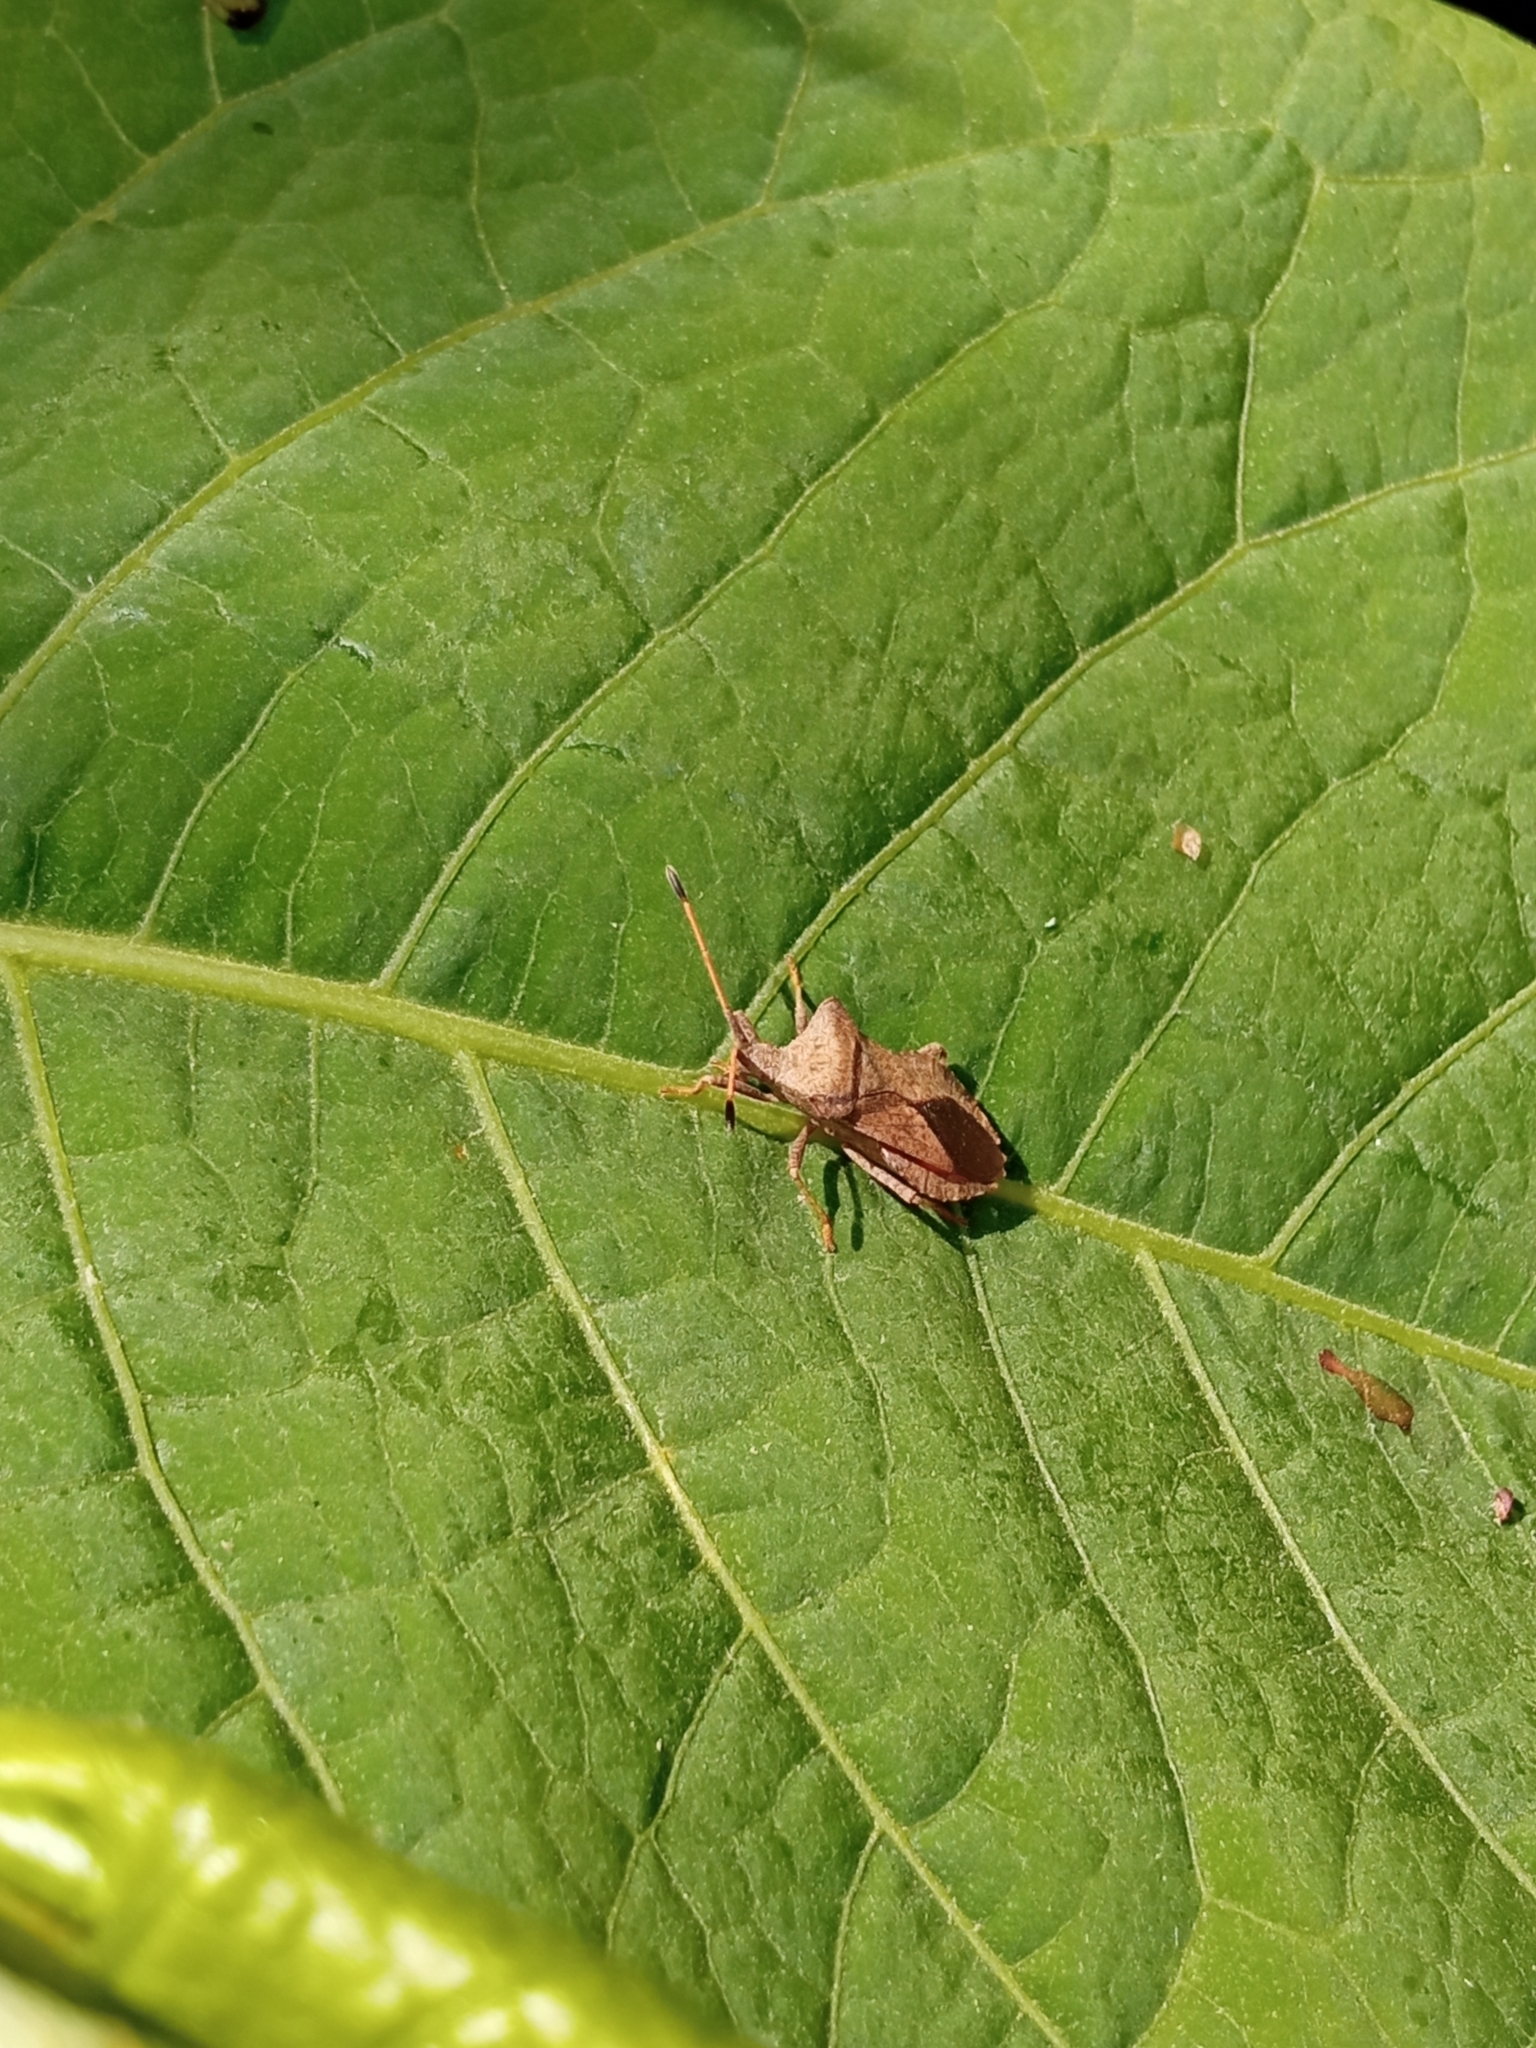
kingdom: Animalia
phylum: Arthropoda
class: Insecta
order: Hemiptera
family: Coreidae
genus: Coreus
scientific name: Coreus marginatus
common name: Dock bug
